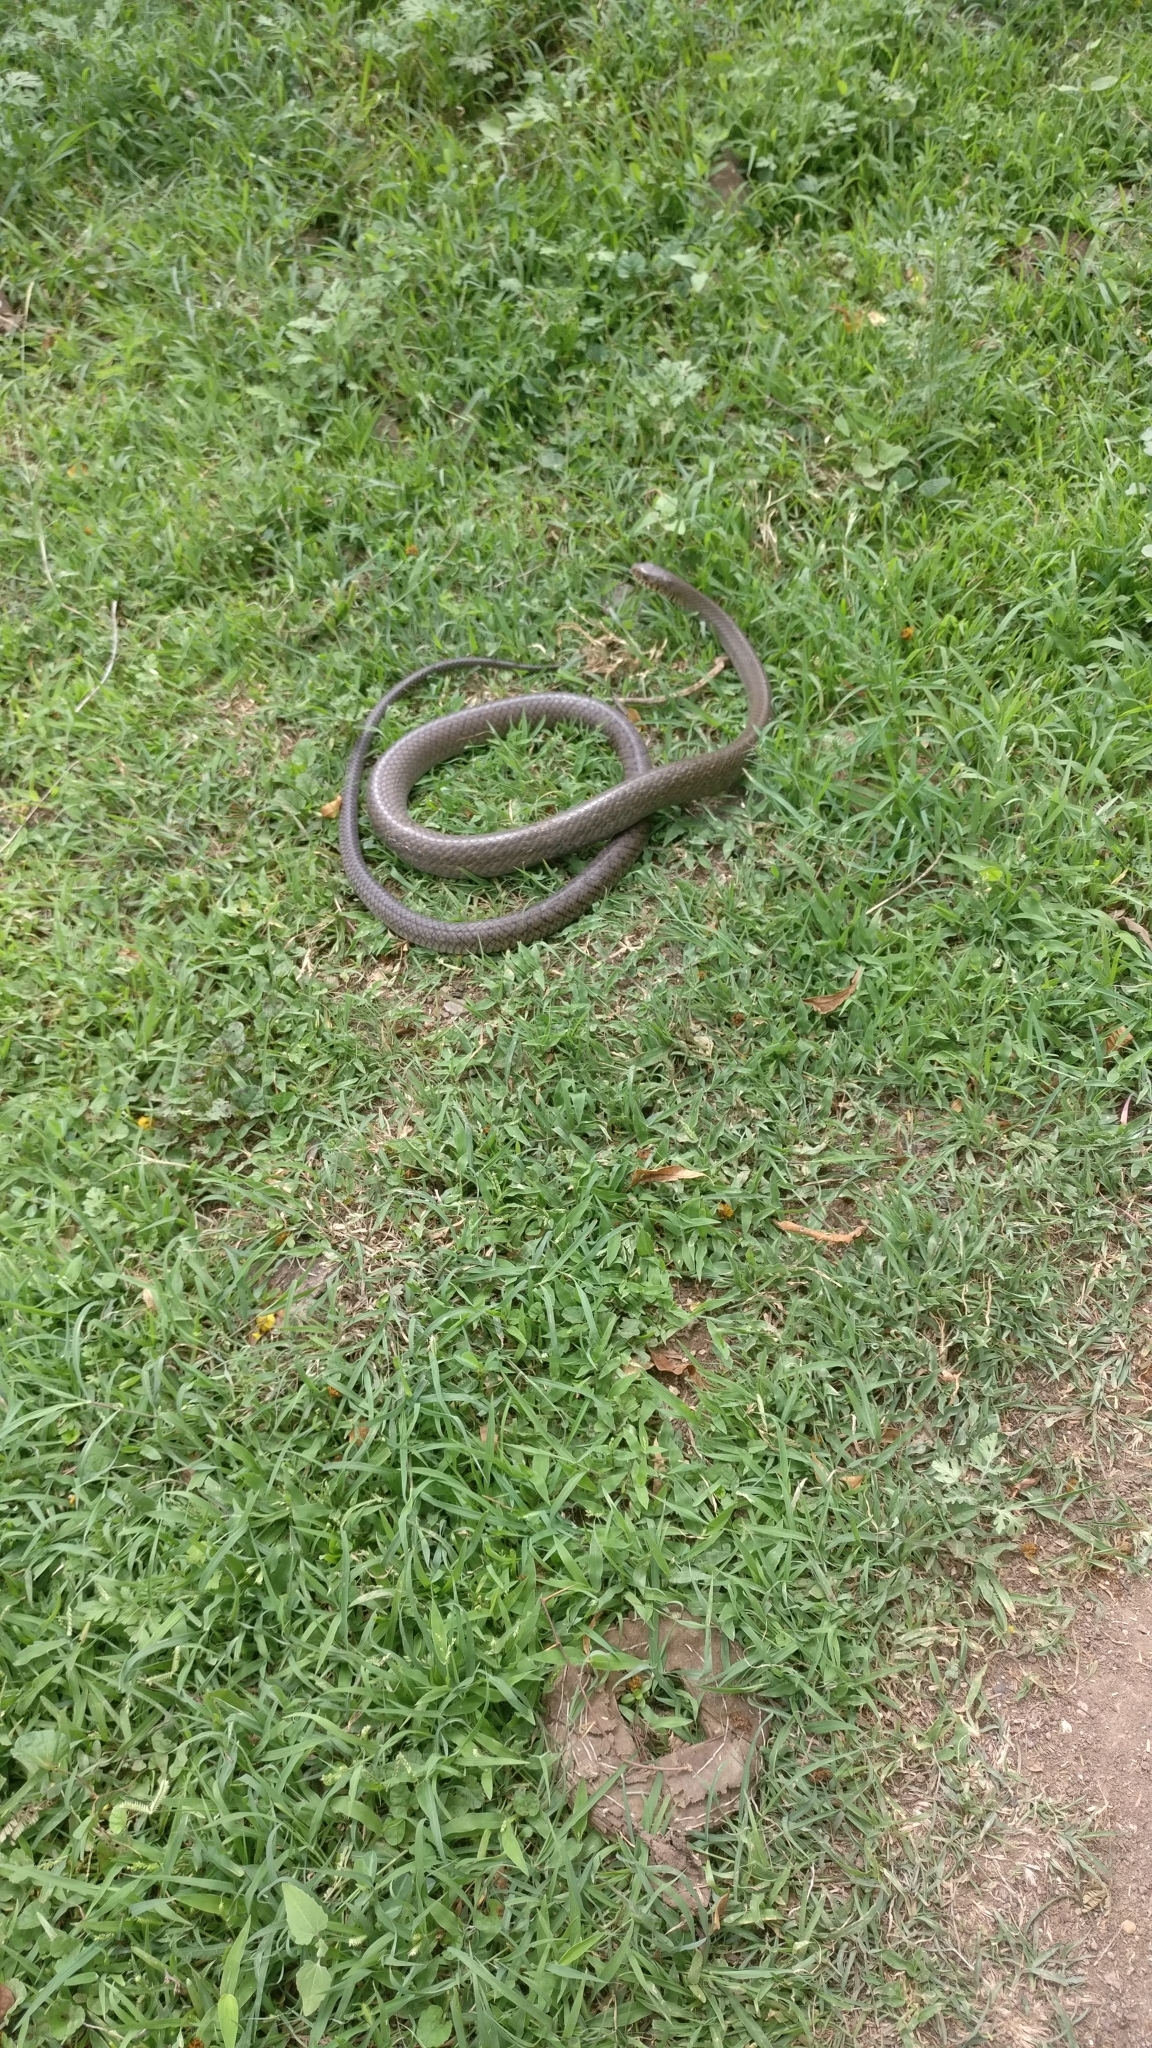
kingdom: Animalia
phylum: Chordata
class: Squamata
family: Colubridae
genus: Ptyas
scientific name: Ptyas mucosa
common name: Oriental ratsnake
